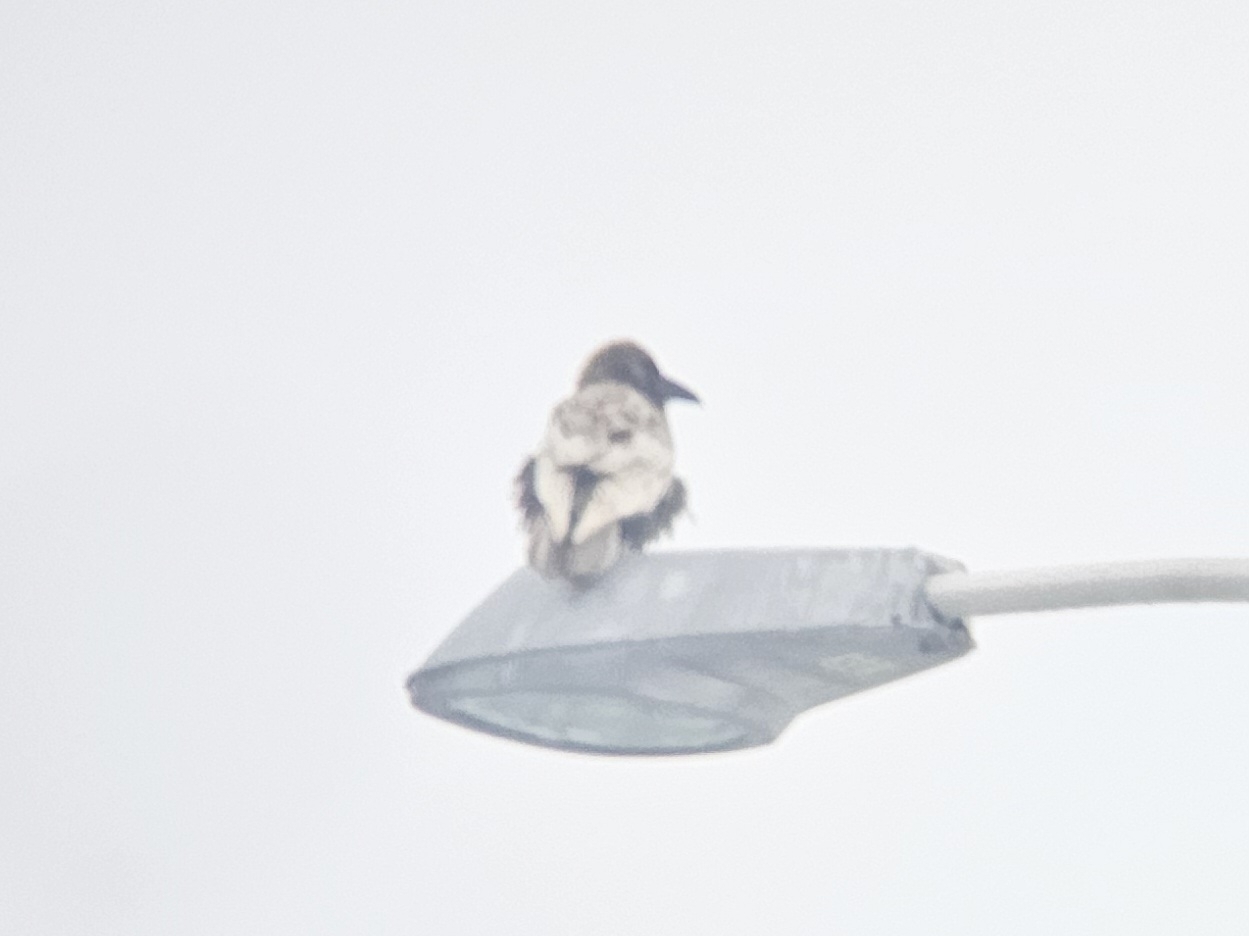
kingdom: Animalia
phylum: Chordata
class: Aves
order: Passeriformes
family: Corvidae
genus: Corvus
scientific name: Corvus corax
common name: Common raven
